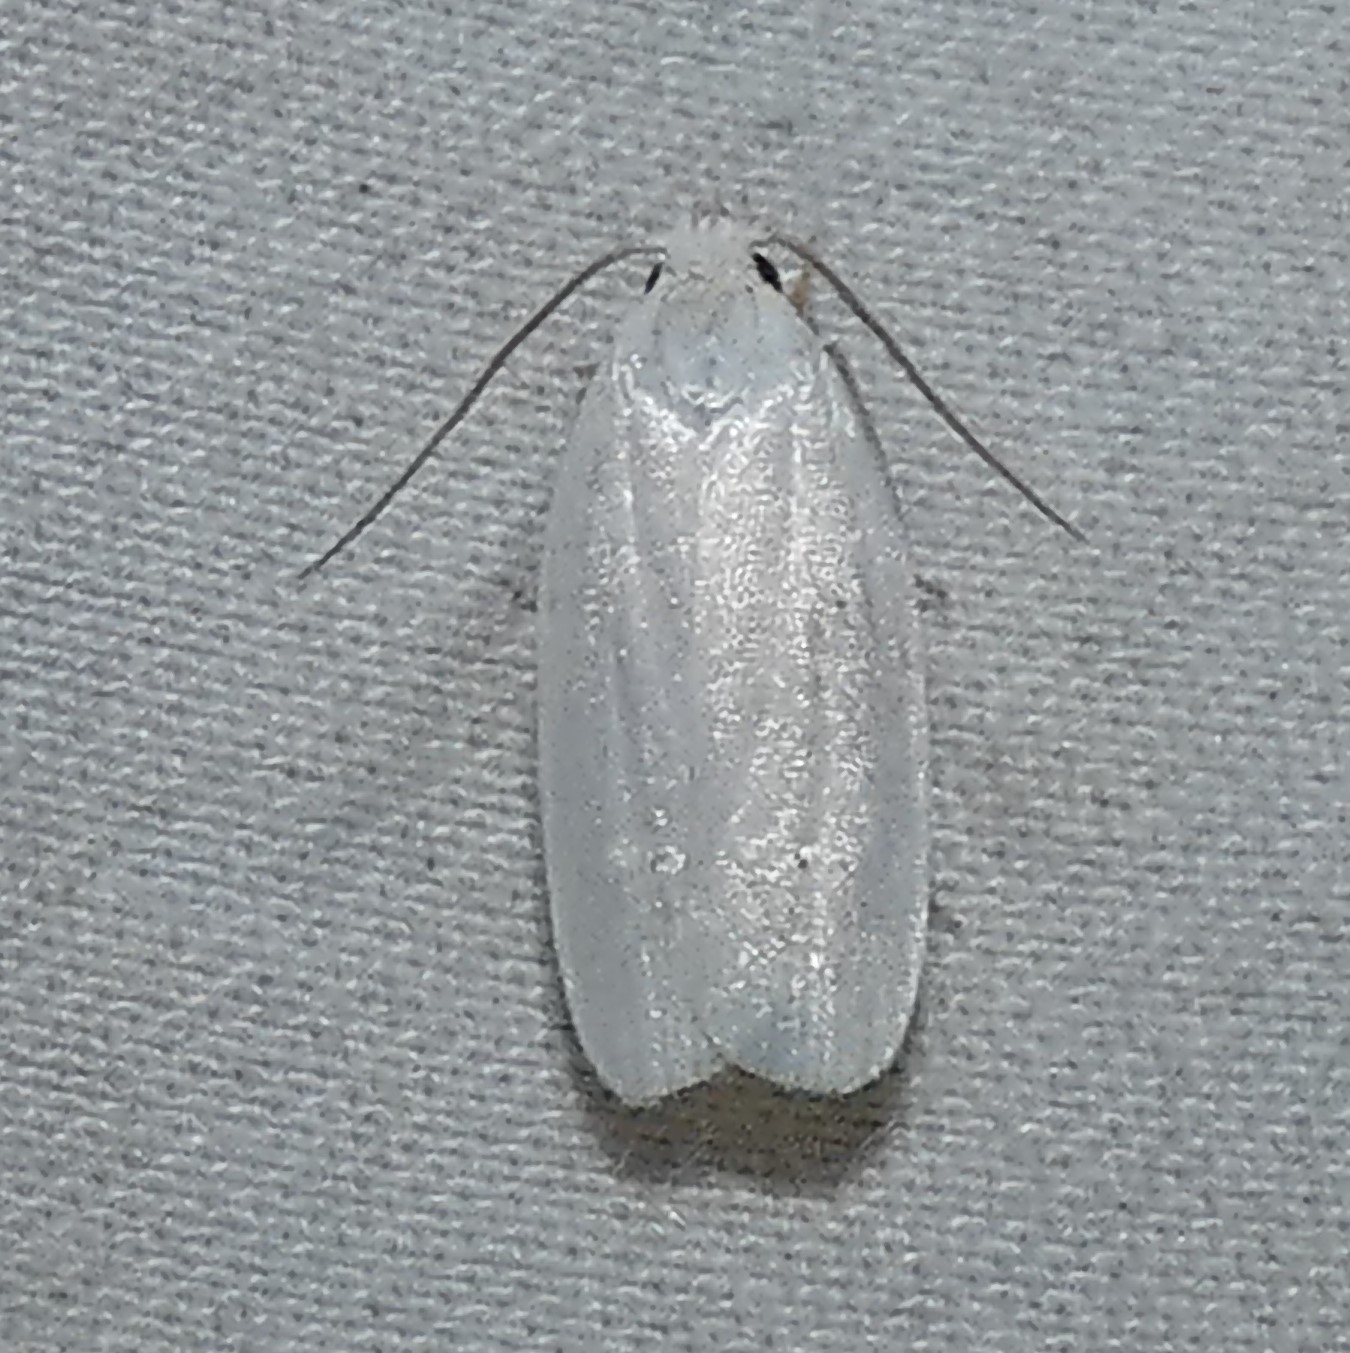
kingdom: Animalia
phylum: Arthropoda
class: Insecta
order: Lepidoptera
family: Depressariidae
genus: Antaeotricha
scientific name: Antaeotricha albulella
